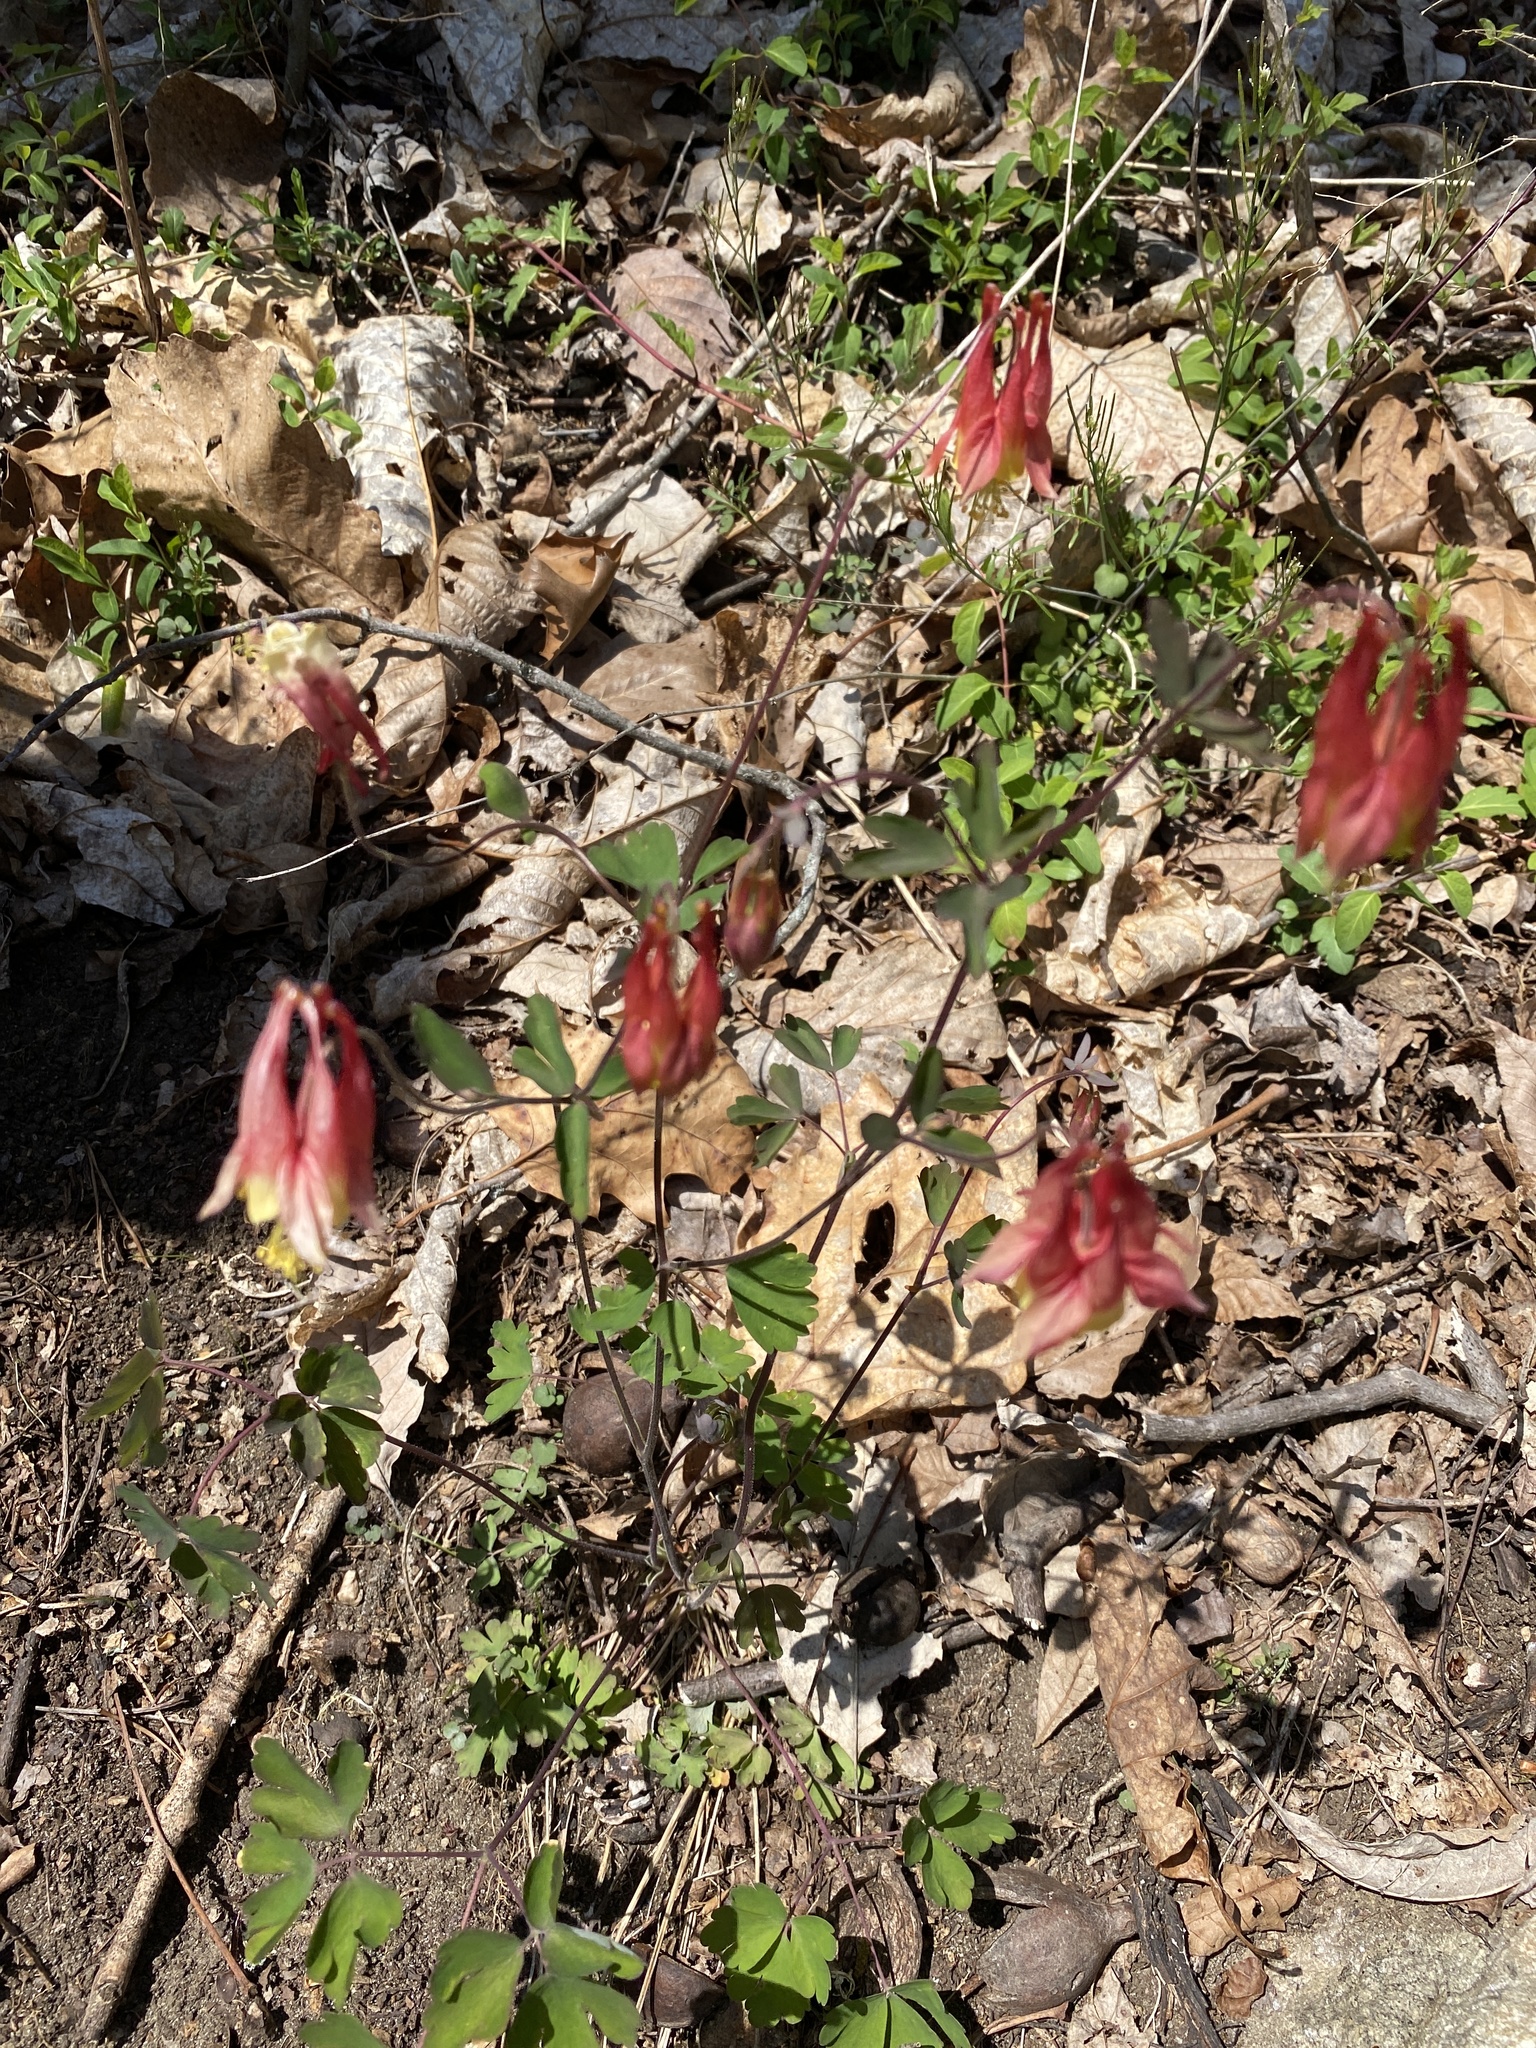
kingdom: Plantae
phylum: Tracheophyta
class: Magnoliopsida
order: Ranunculales
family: Ranunculaceae
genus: Aquilegia
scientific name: Aquilegia canadensis
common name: American columbine
